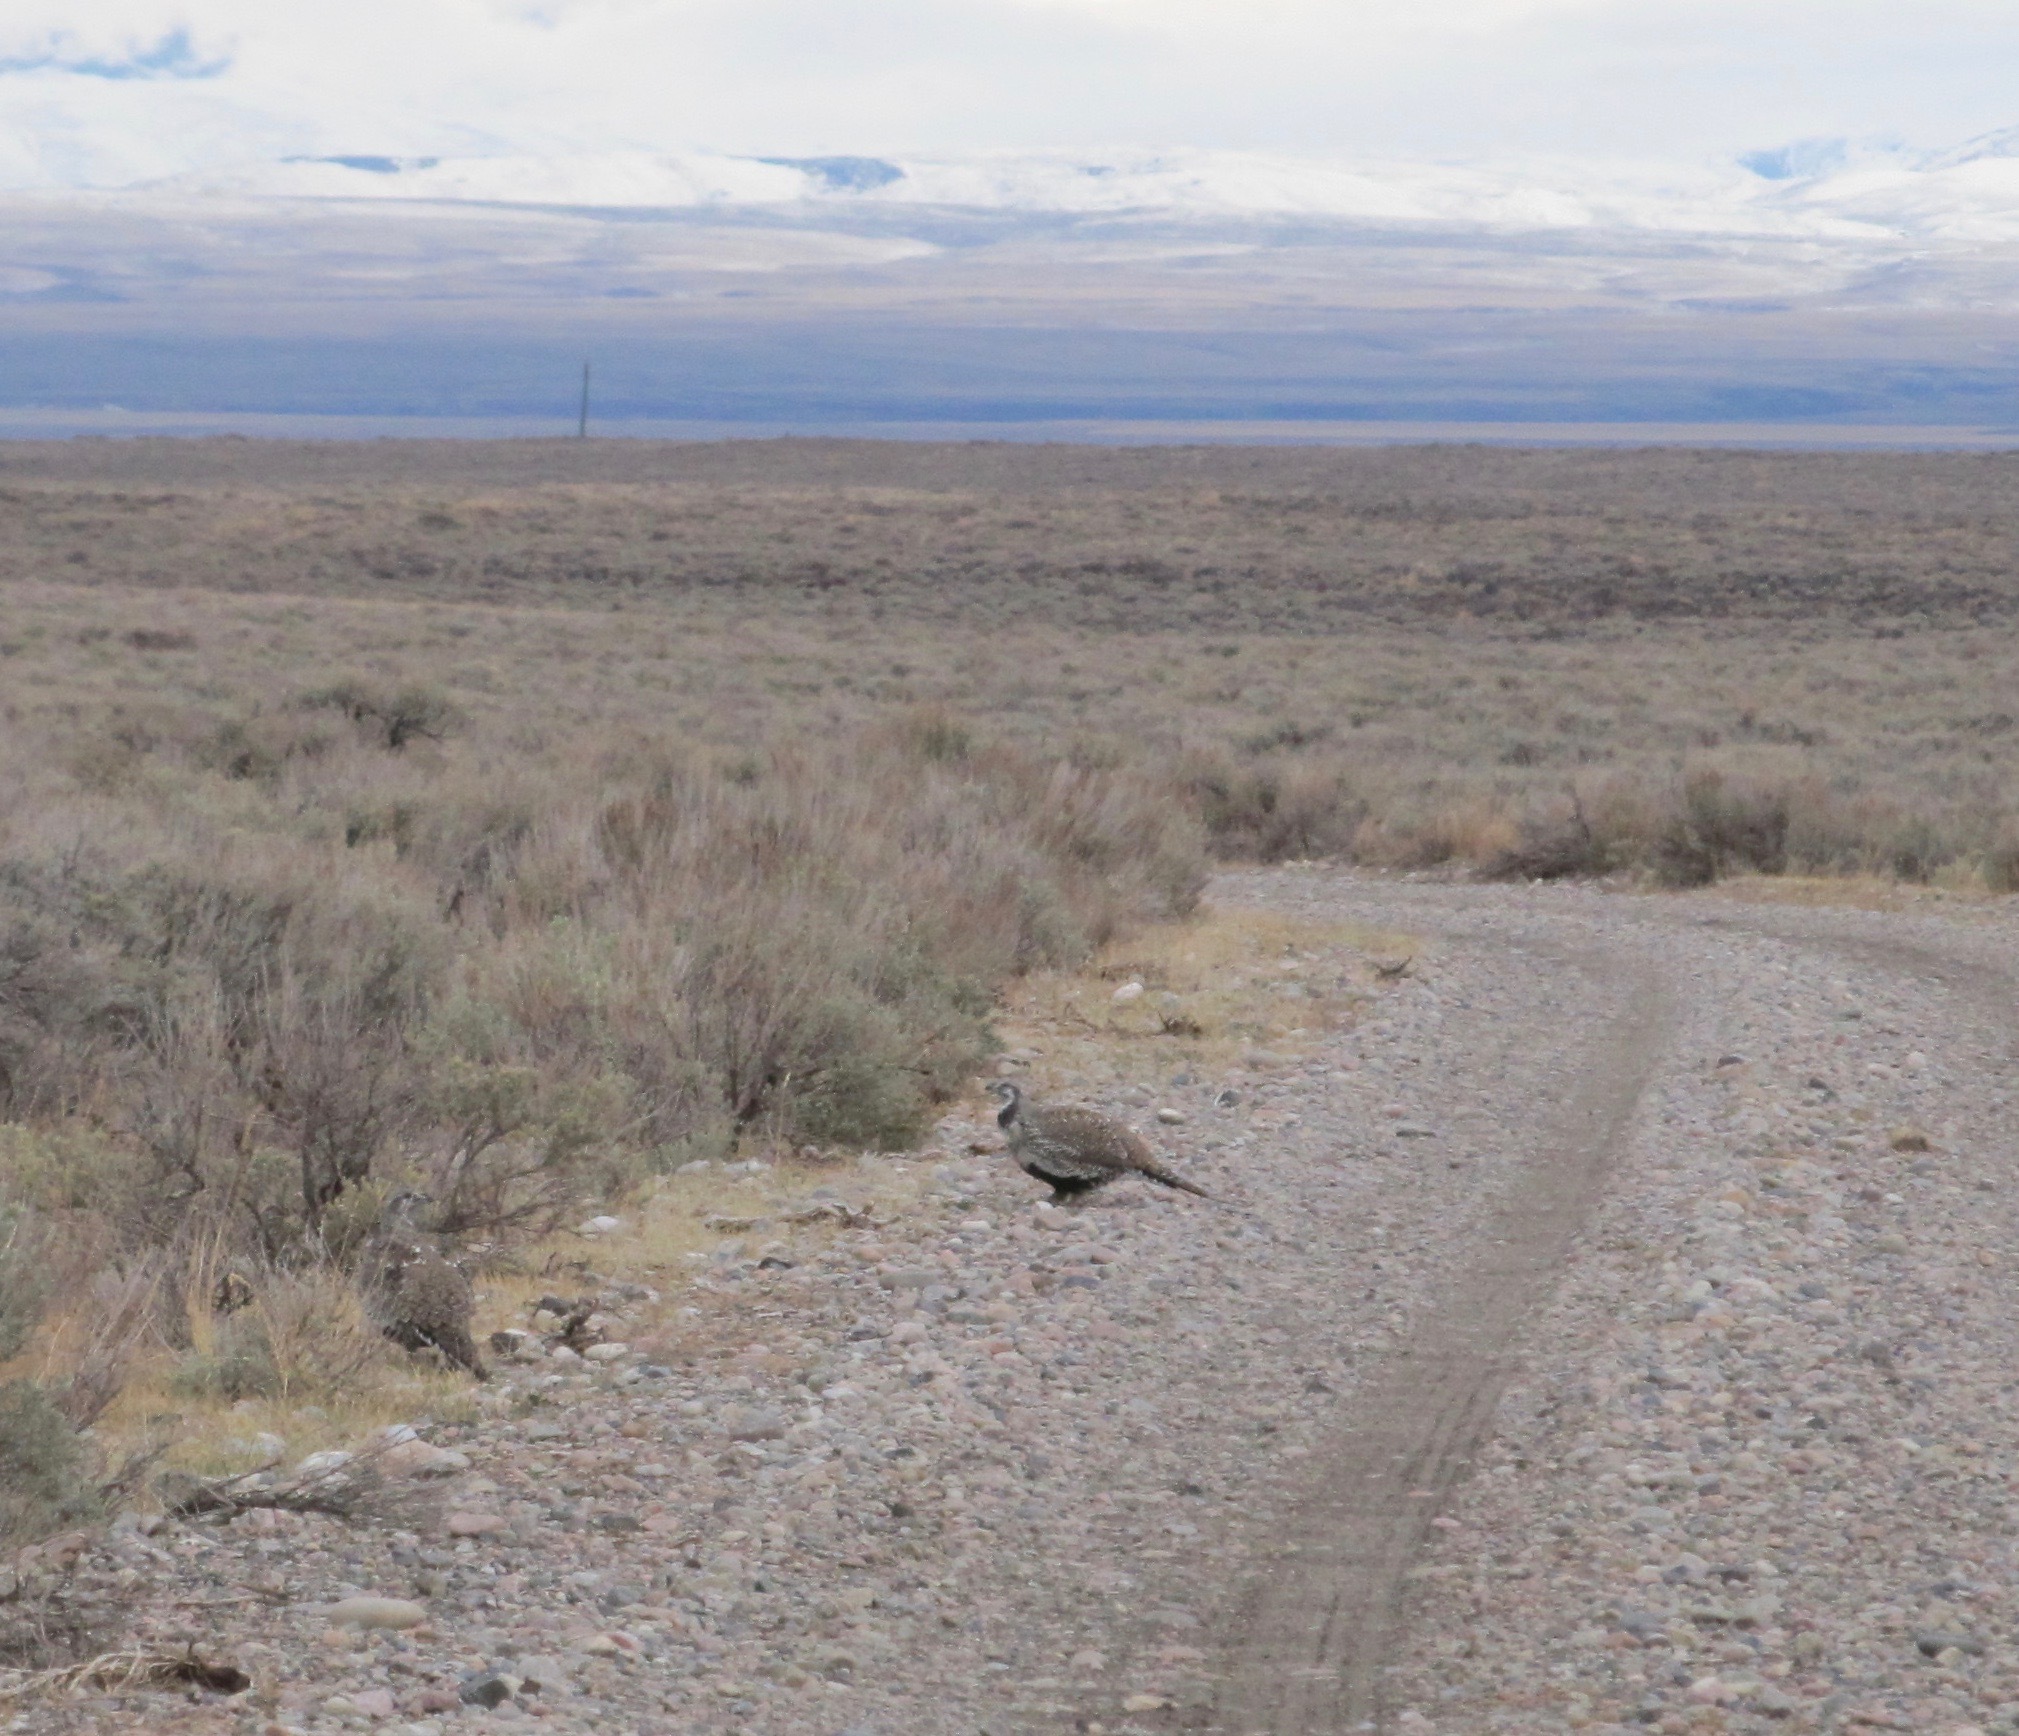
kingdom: Animalia
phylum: Chordata
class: Aves
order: Galliformes
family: Phasianidae
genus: Centrocercus
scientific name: Centrocercus urophasianus
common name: Sage grouse
